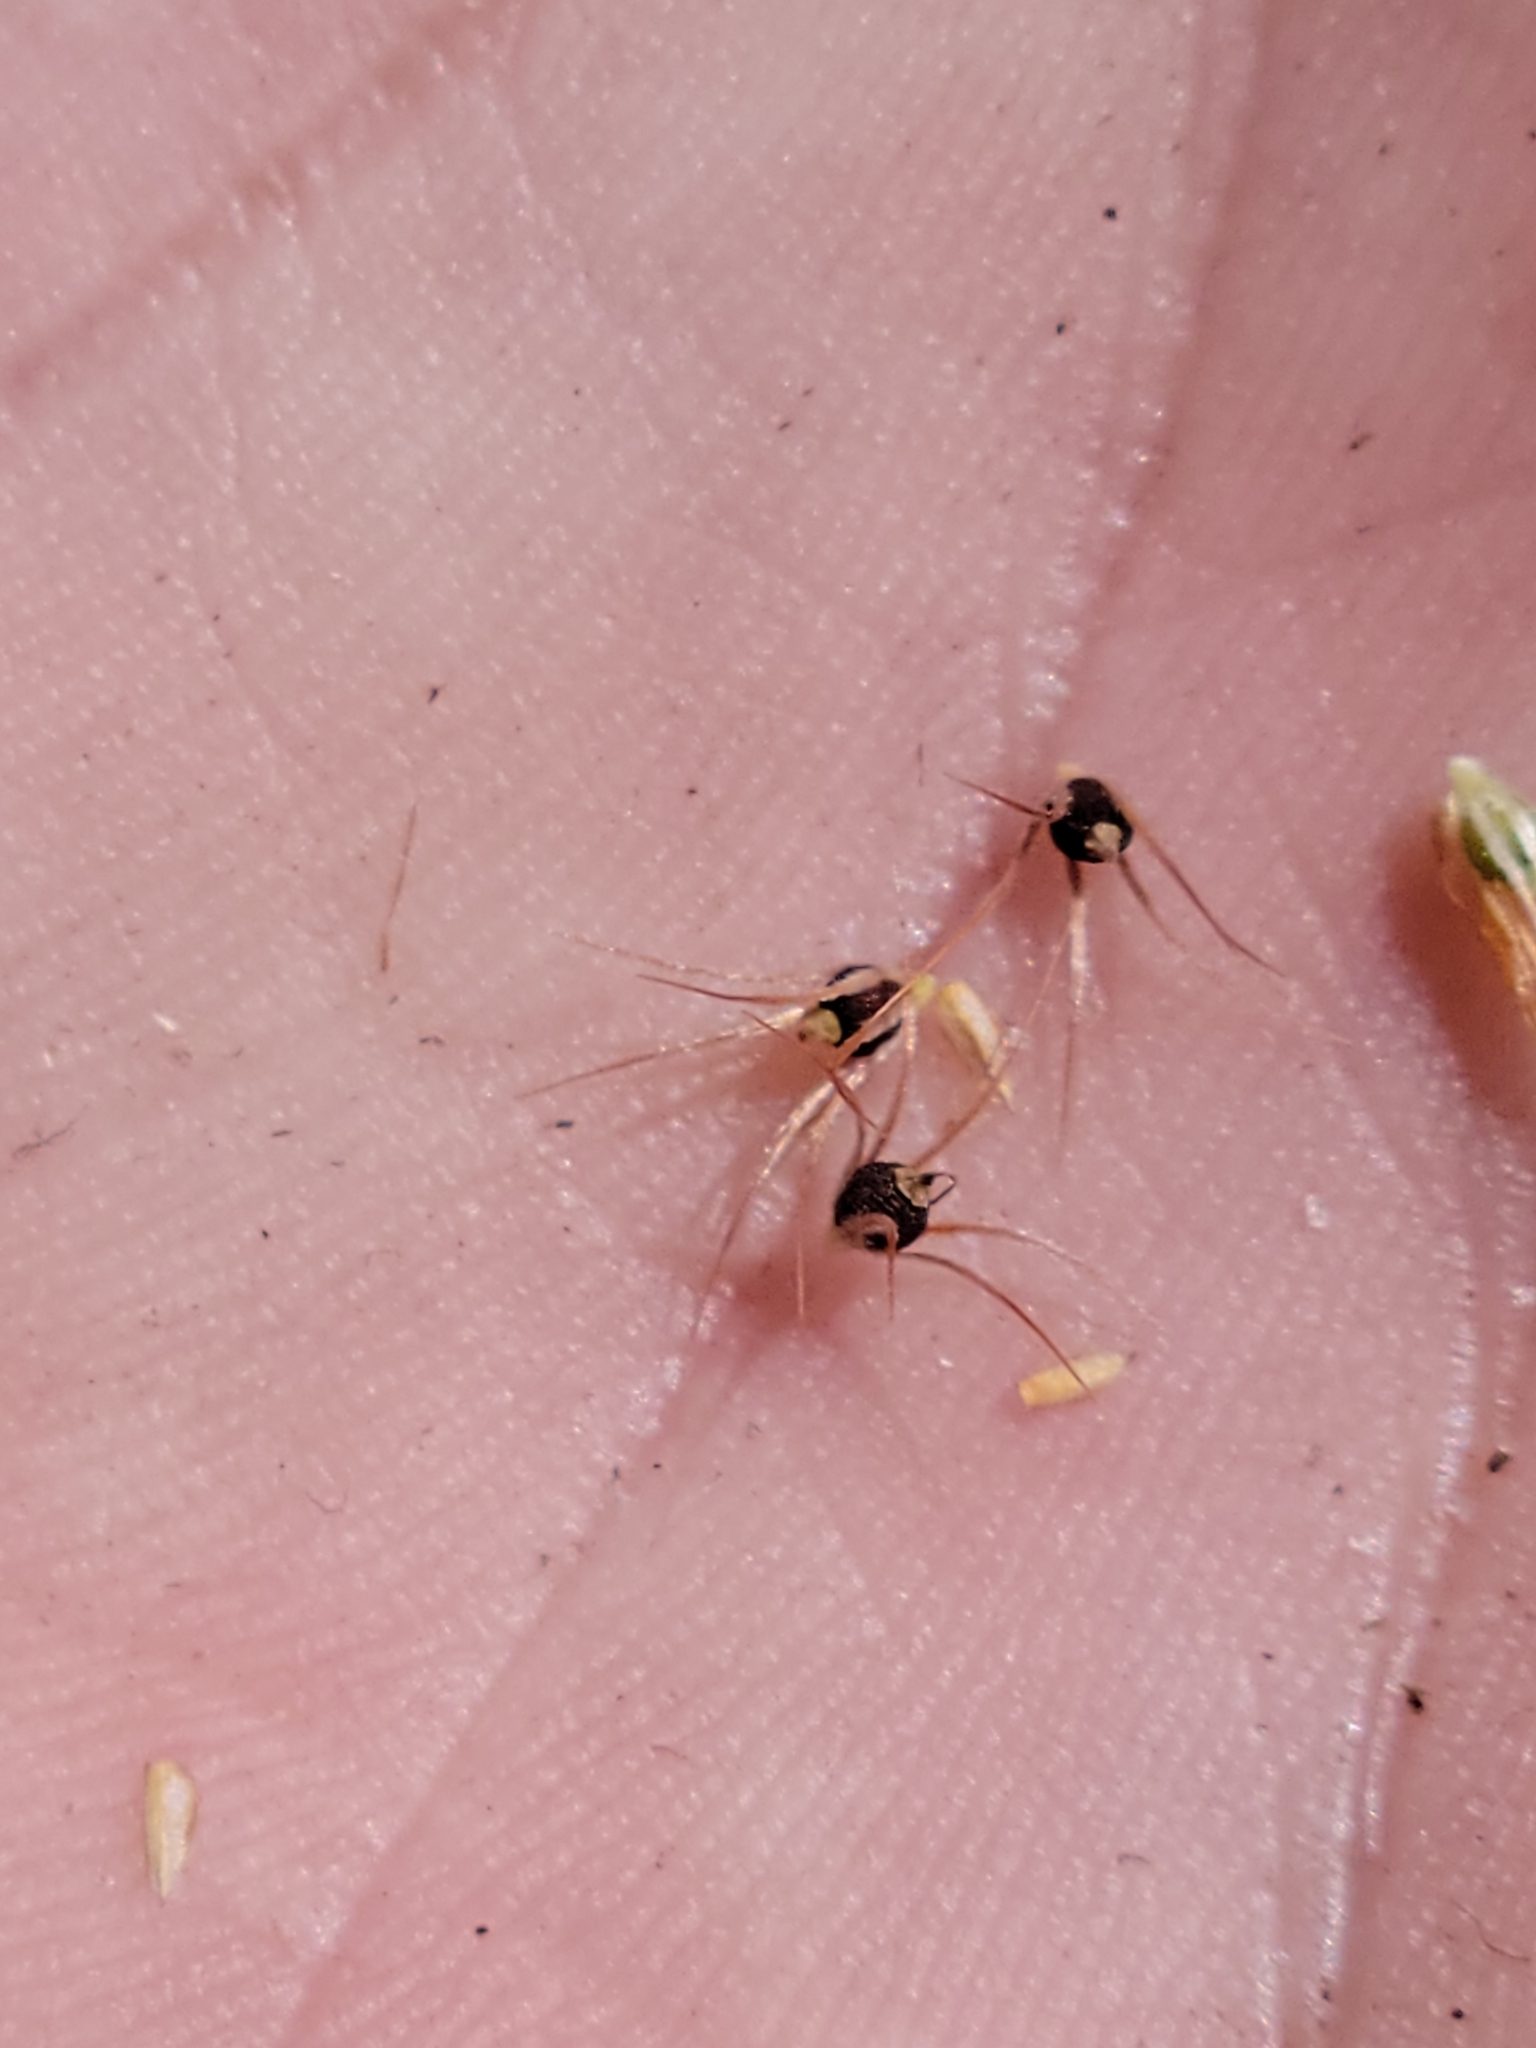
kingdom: Plantae
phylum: Tracheophyta
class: Liliopsida
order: Poales
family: Cyperaceae
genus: Rhynchospora
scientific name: Rhynchospora megaplumosa
